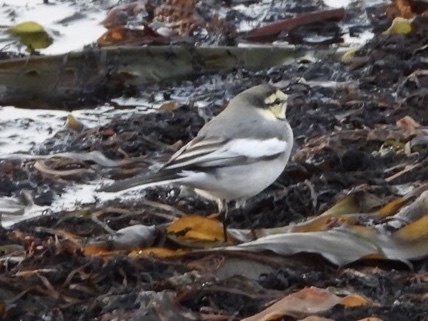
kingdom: Animalia
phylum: Chordata
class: Aves
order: Passeriformes
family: Motacillidae
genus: Motacilla
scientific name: Motacilla alba
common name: White wagtail
